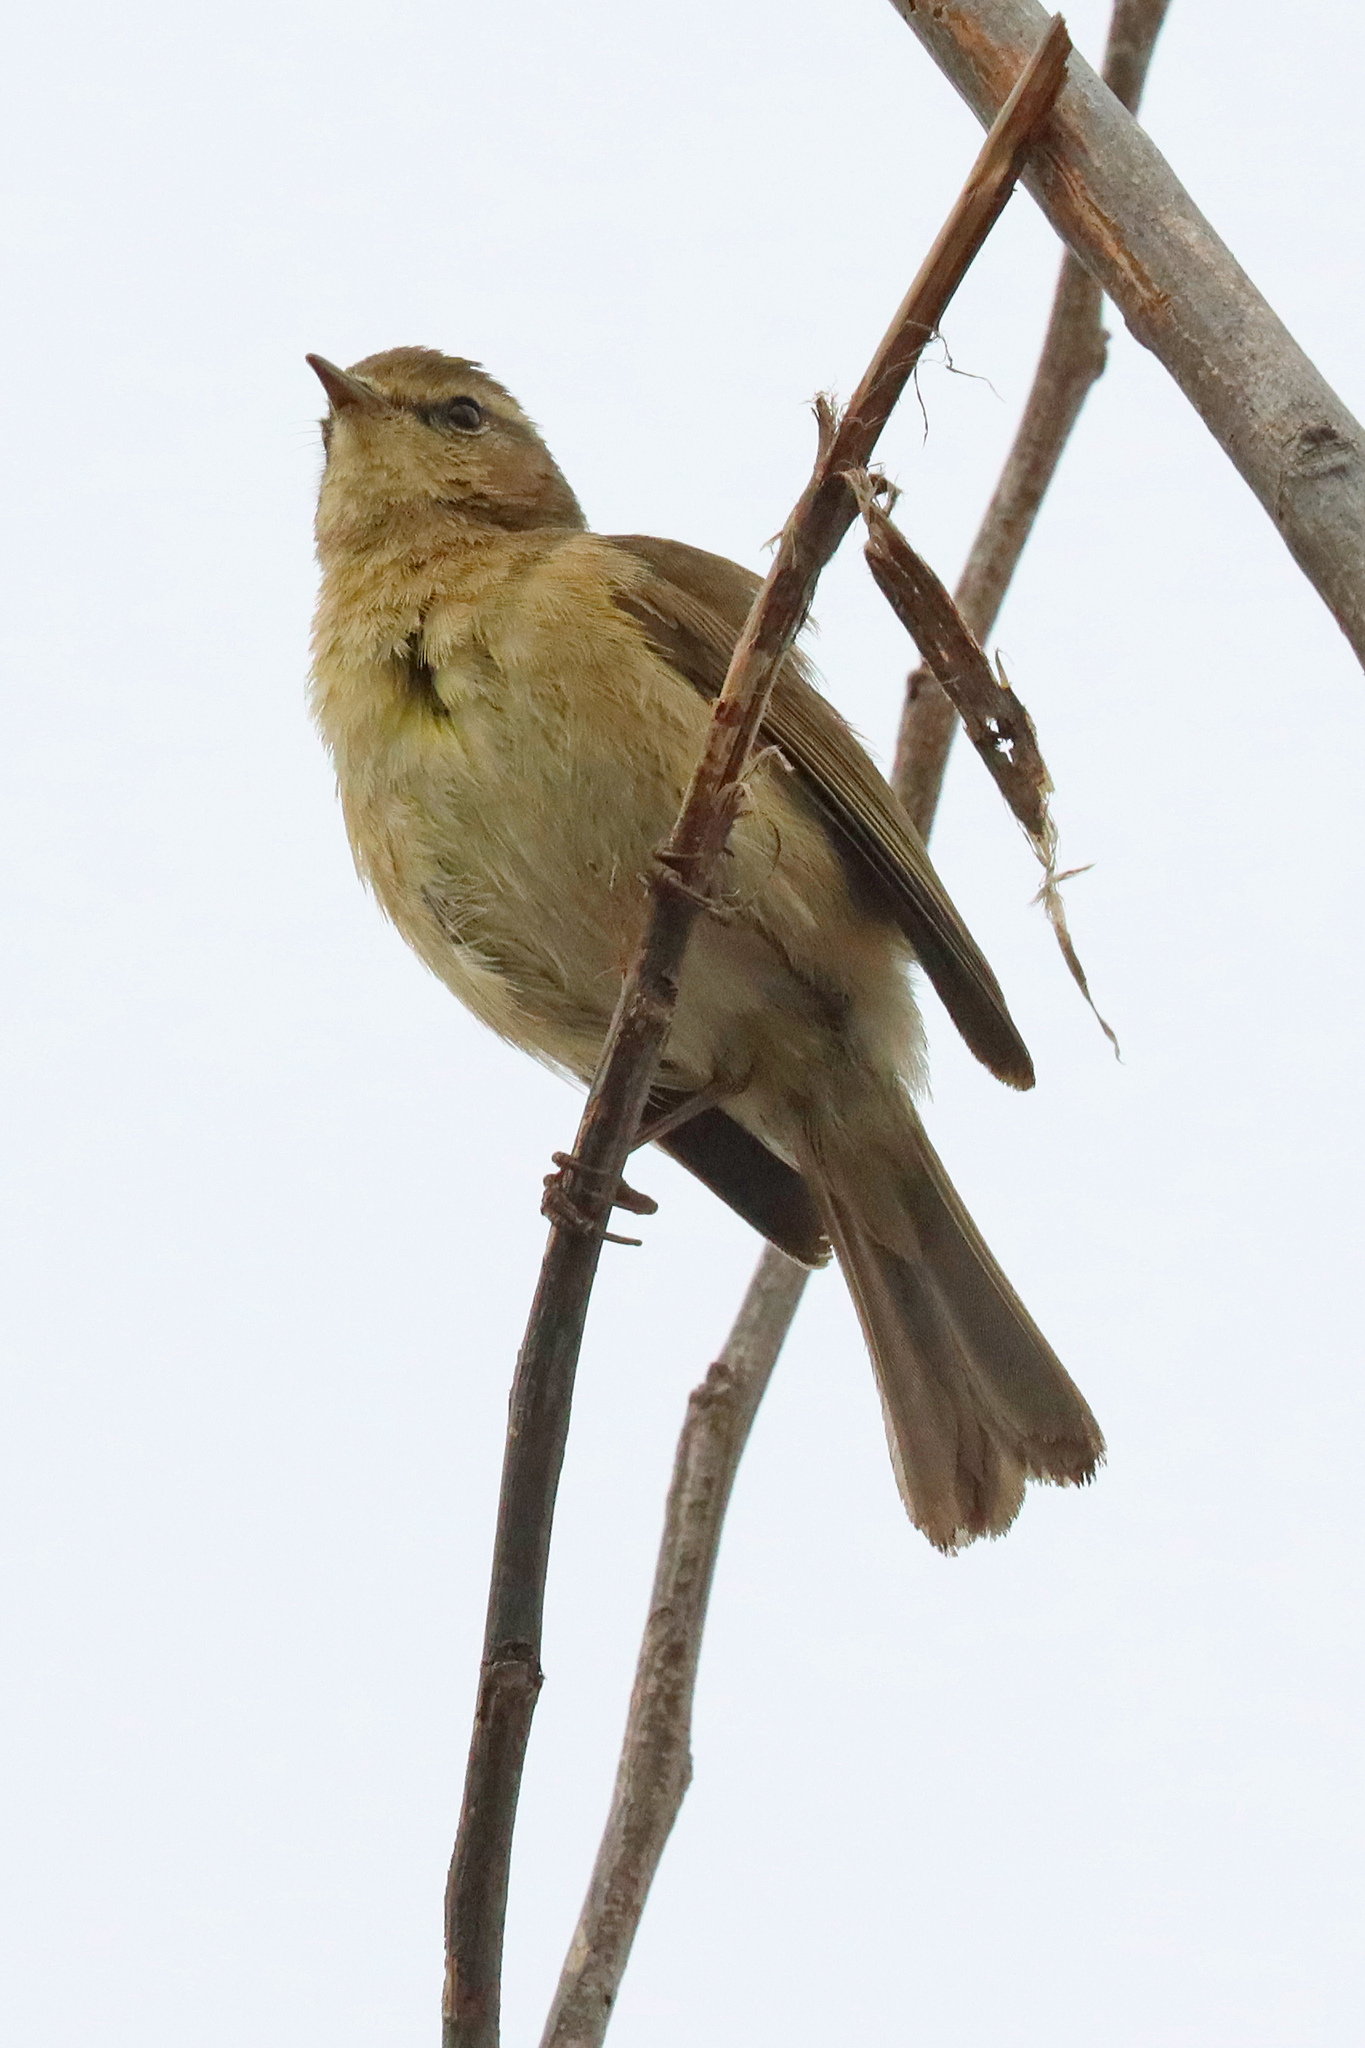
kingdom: Animalia
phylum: Chordata
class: Aves
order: Passeriformes
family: Phylloscopidae
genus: Phylloscopus
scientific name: Phylloscopus canariensis
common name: Canary islands chiffchaff
